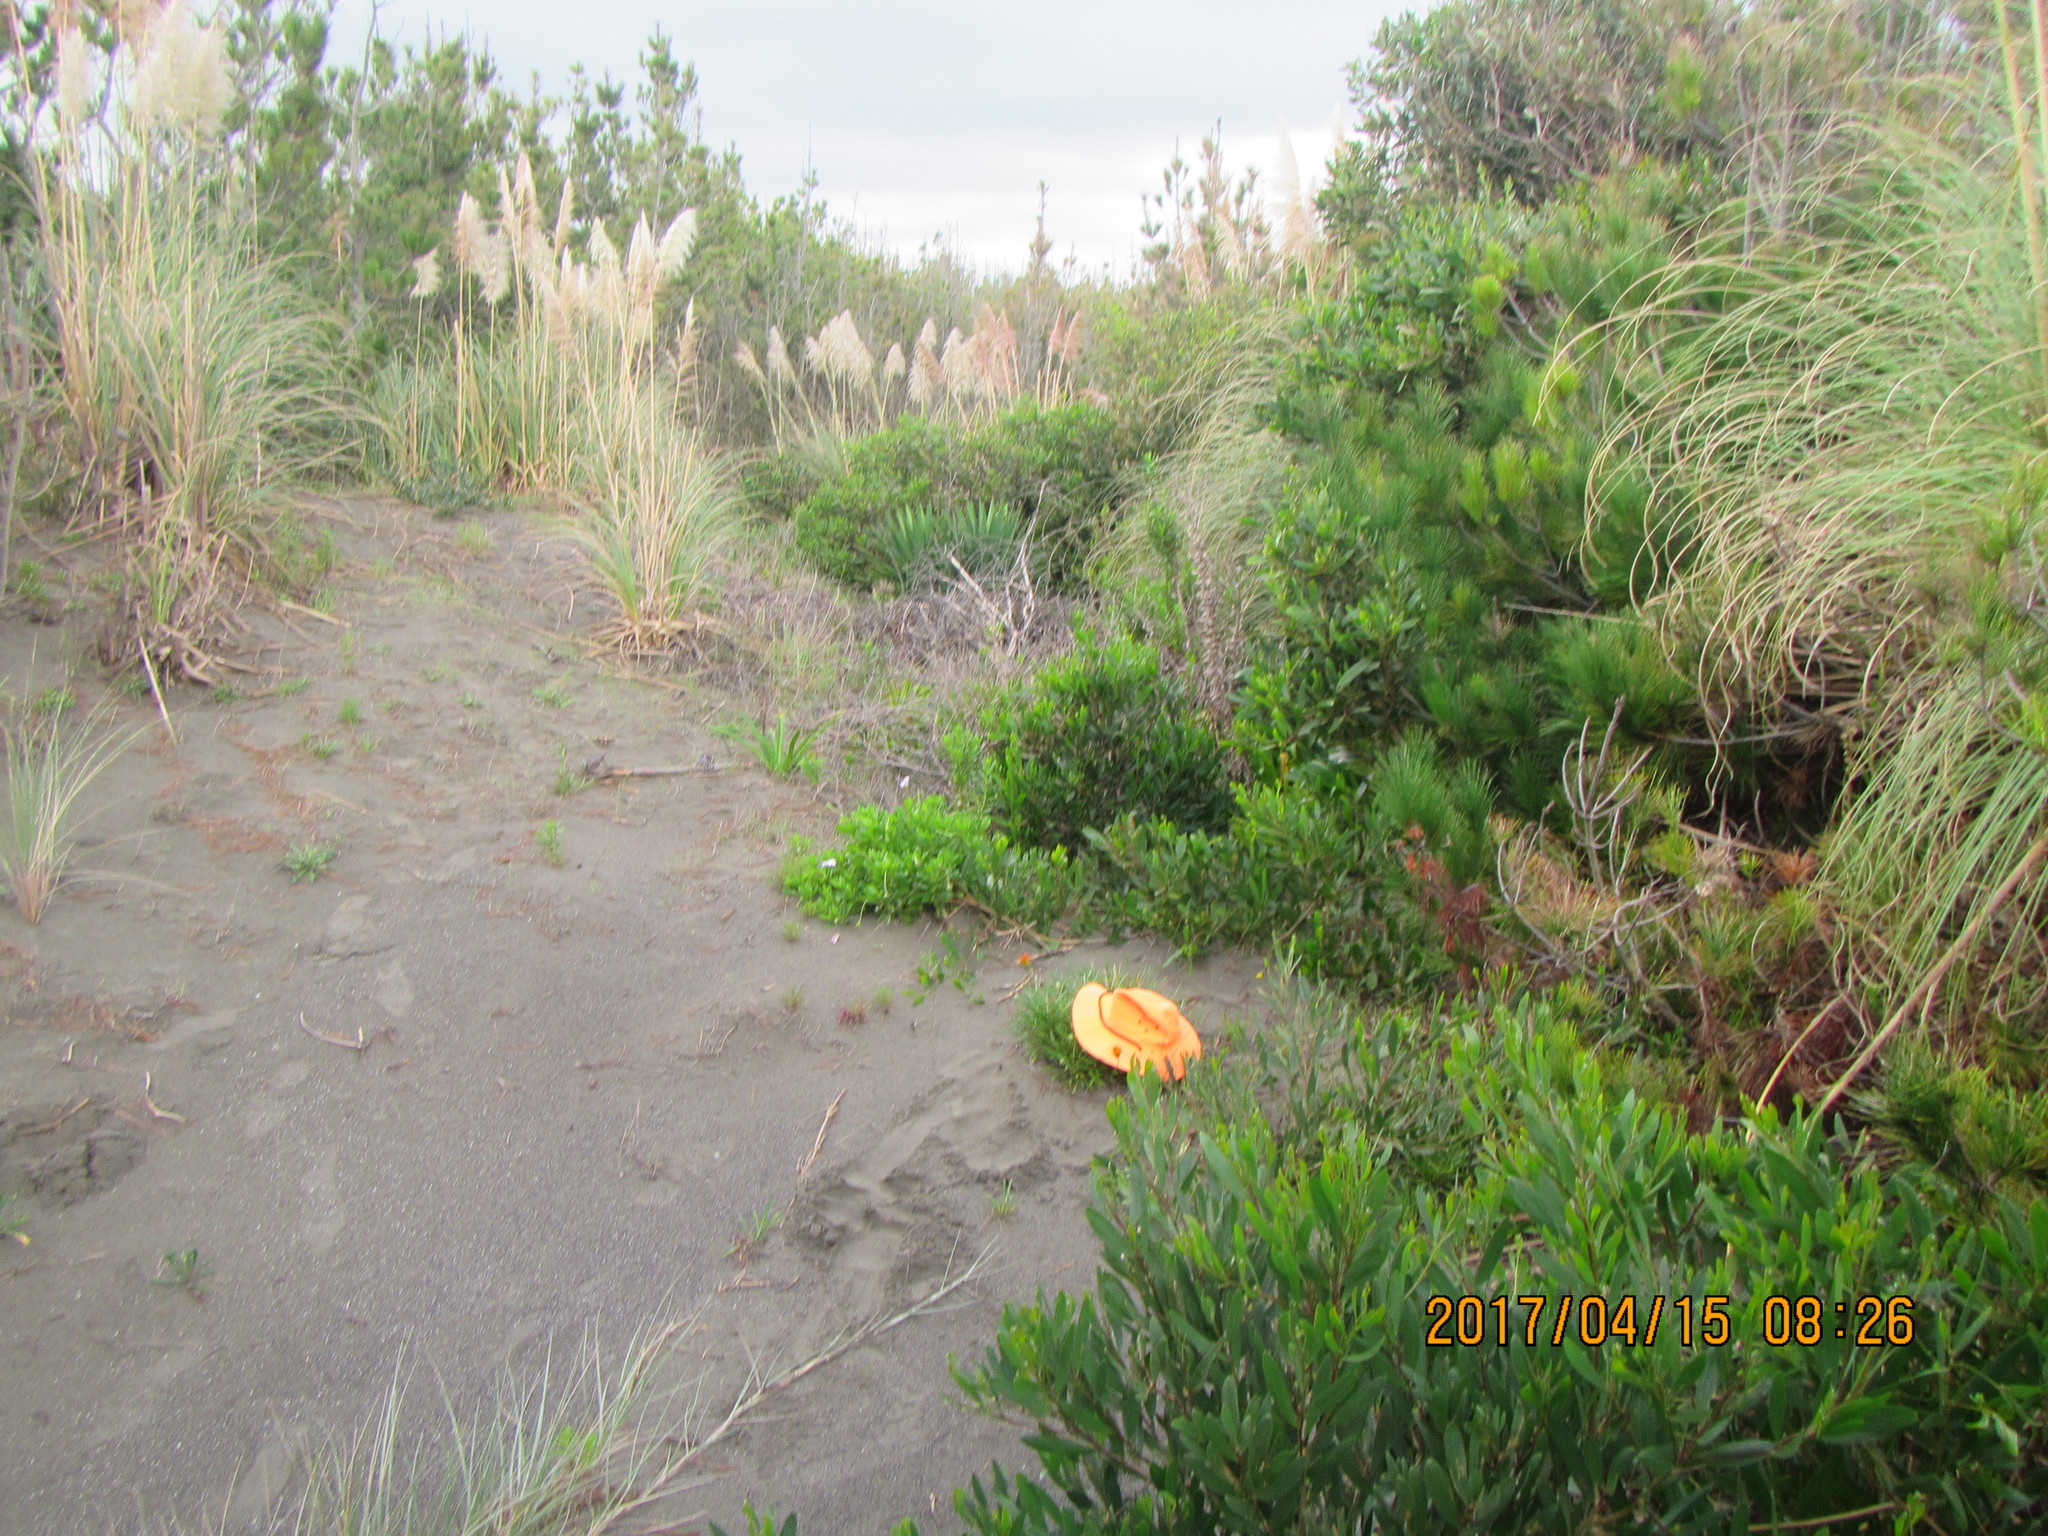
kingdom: Animalia
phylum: Arthropoda
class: Arachnida
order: Araneae
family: Theridiidae
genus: Latrodectus
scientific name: Latrodectus katipo
